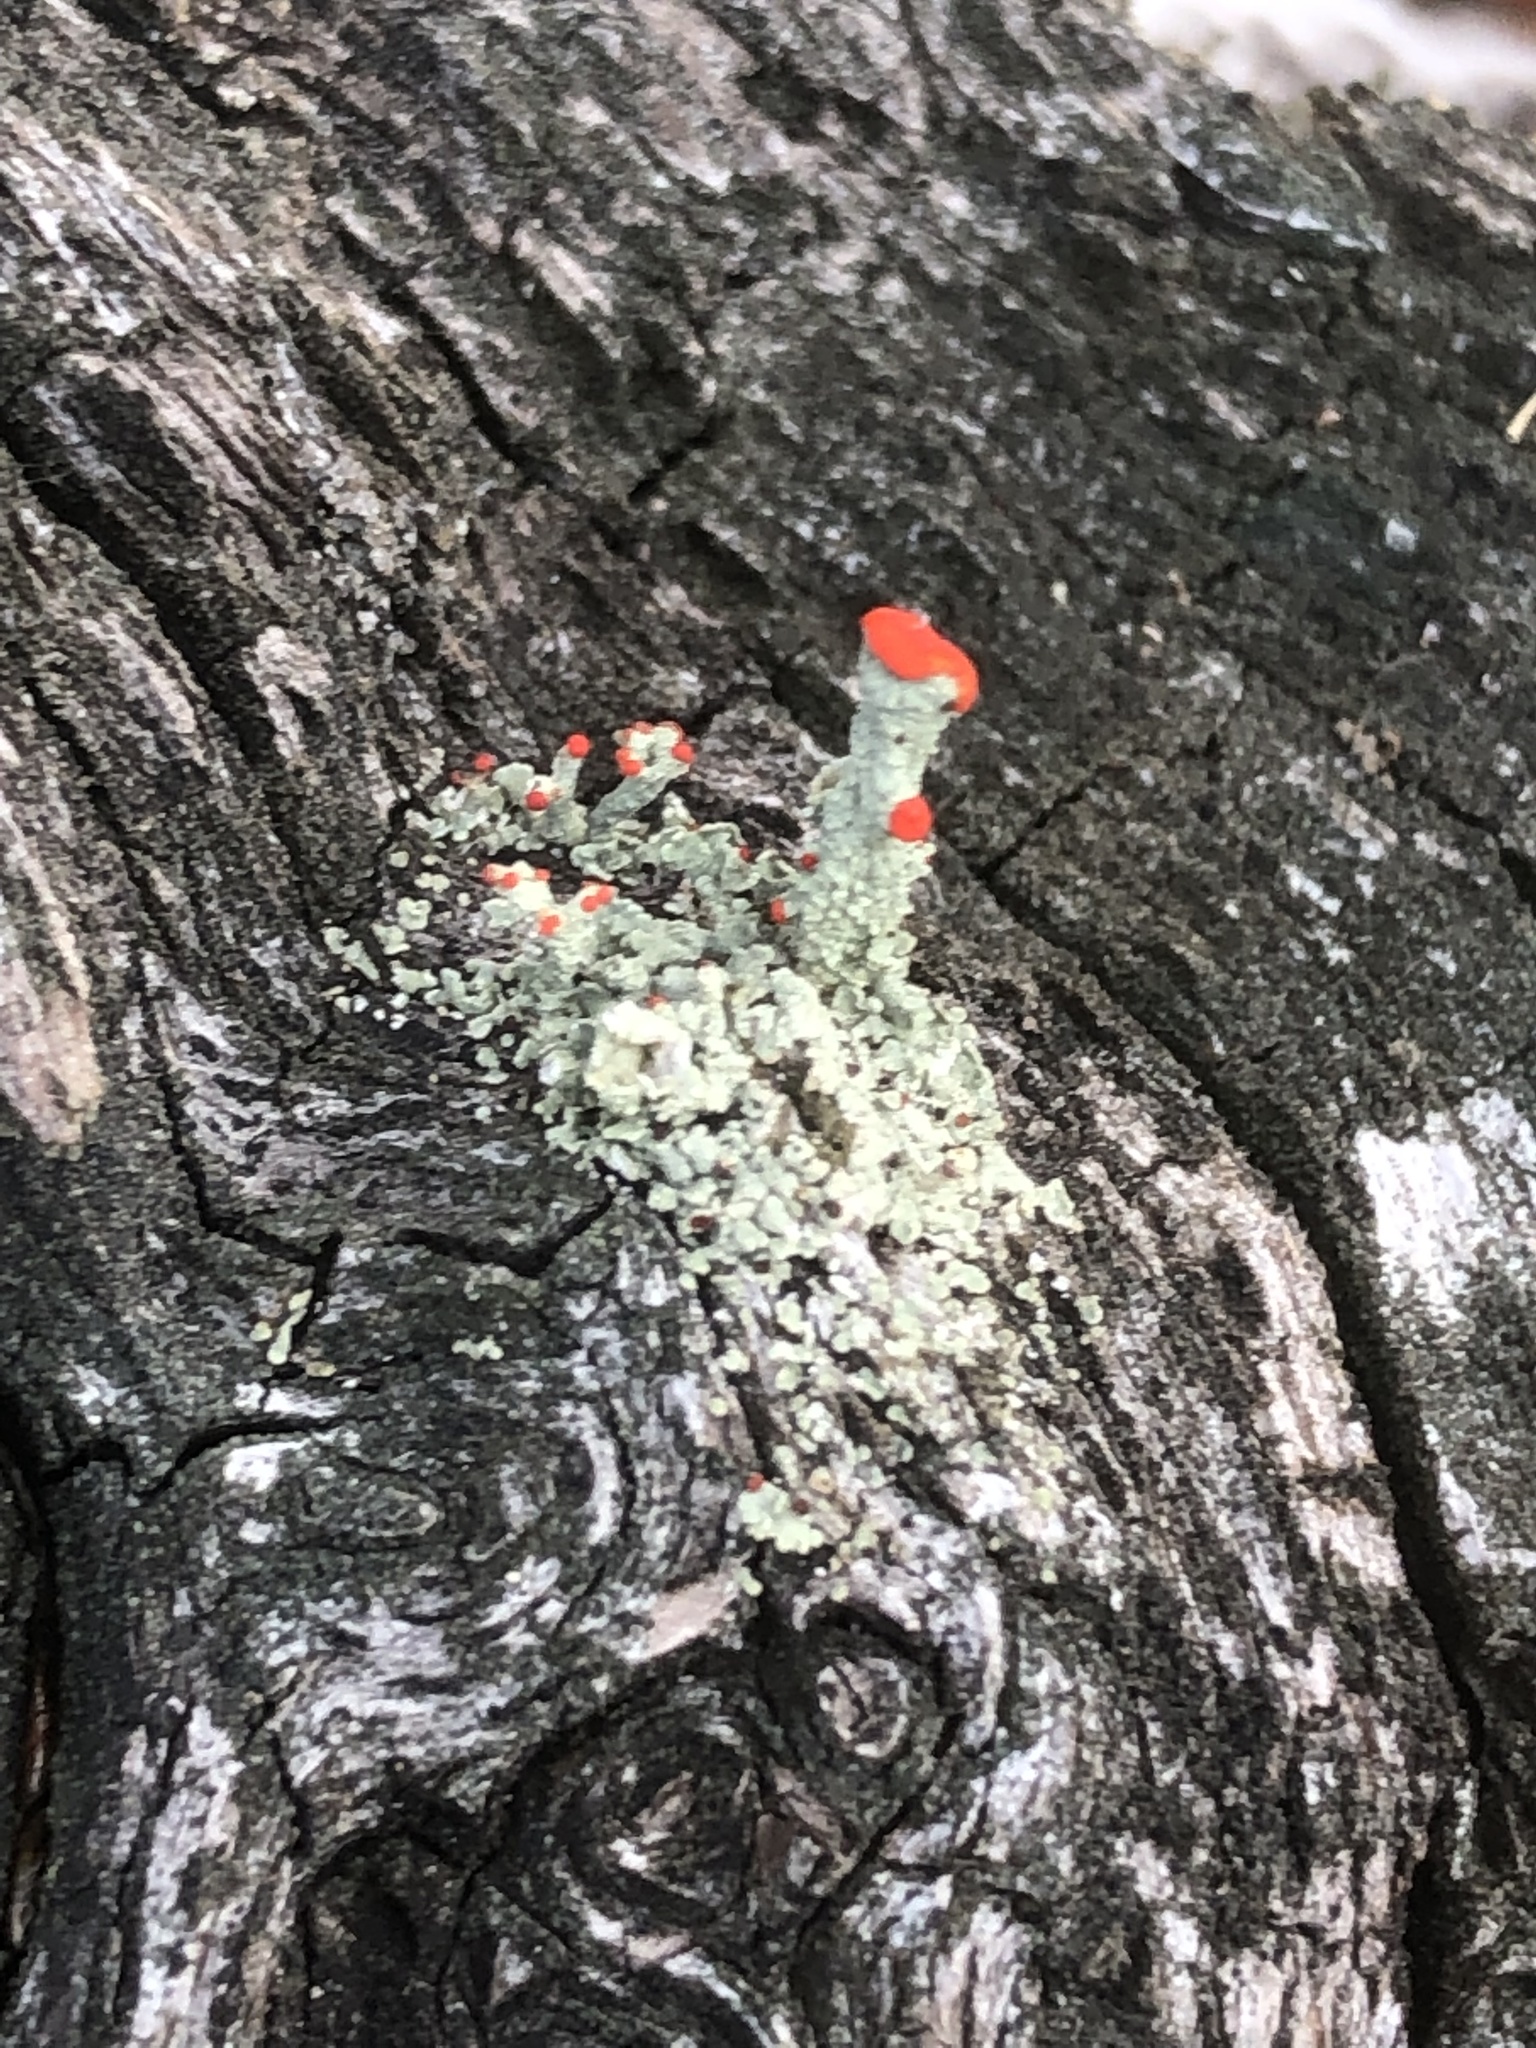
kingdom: Fungi
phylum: Ascomycota
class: Lecanoromycetes
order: Lecanorales
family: Cladoniaceae
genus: Cladonia
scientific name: Cladonia macilenta
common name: Lipstick powderhorn
